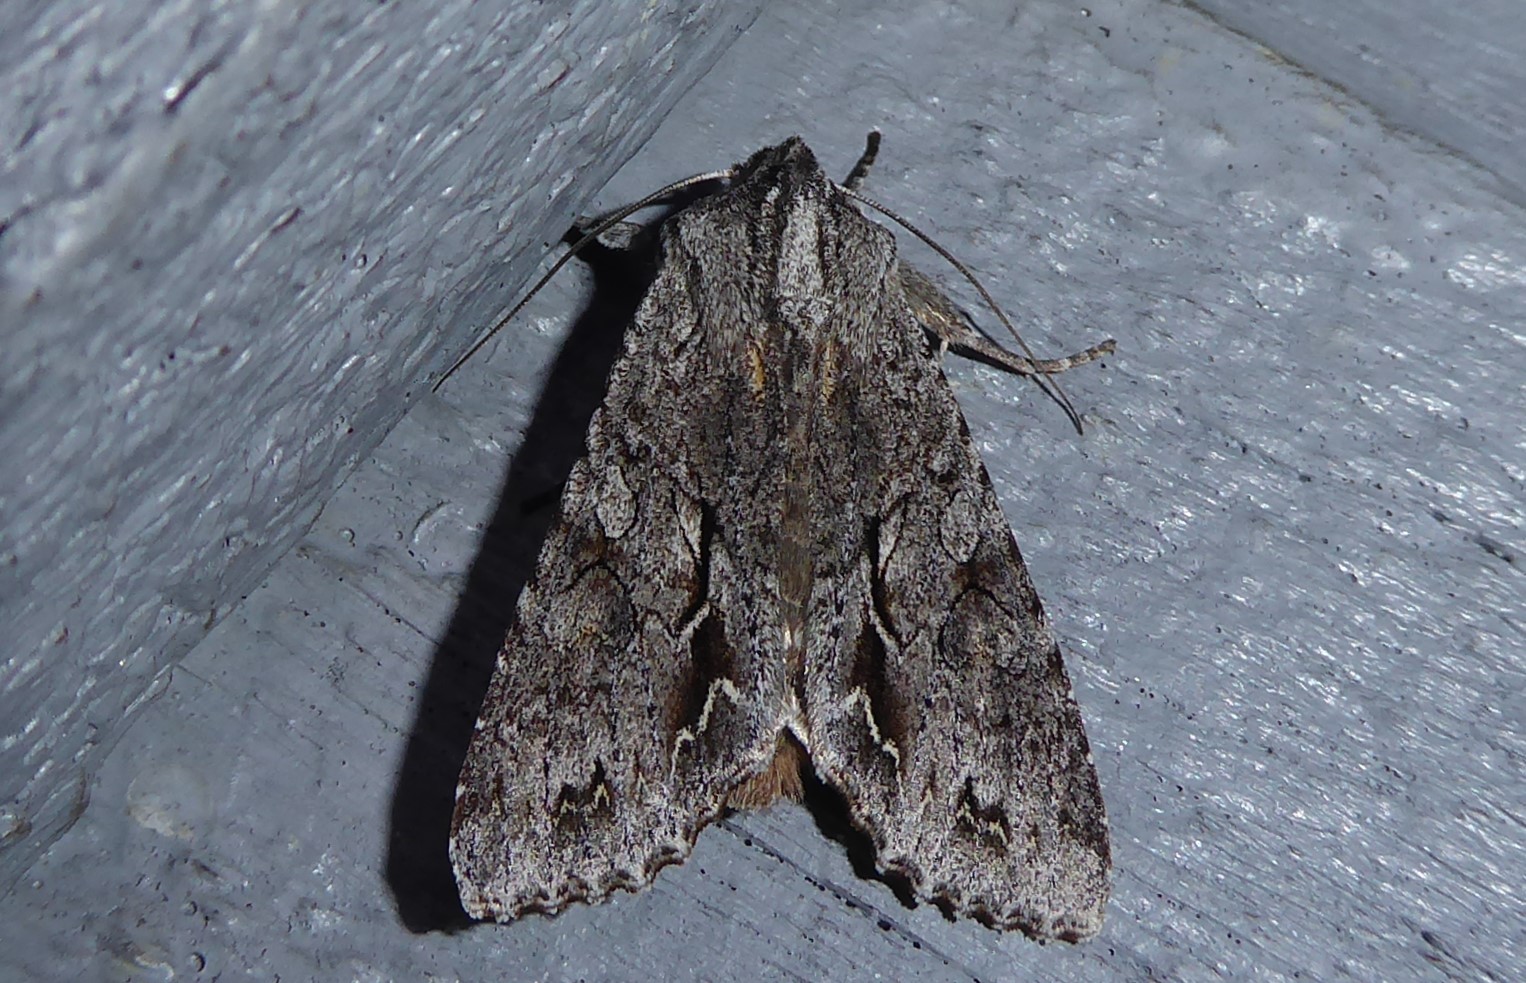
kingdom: Animalia
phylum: Arthropoda
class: Insecta
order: Lepidoptera
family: Noctuidae
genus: Ichneutica
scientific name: Ichneutica
